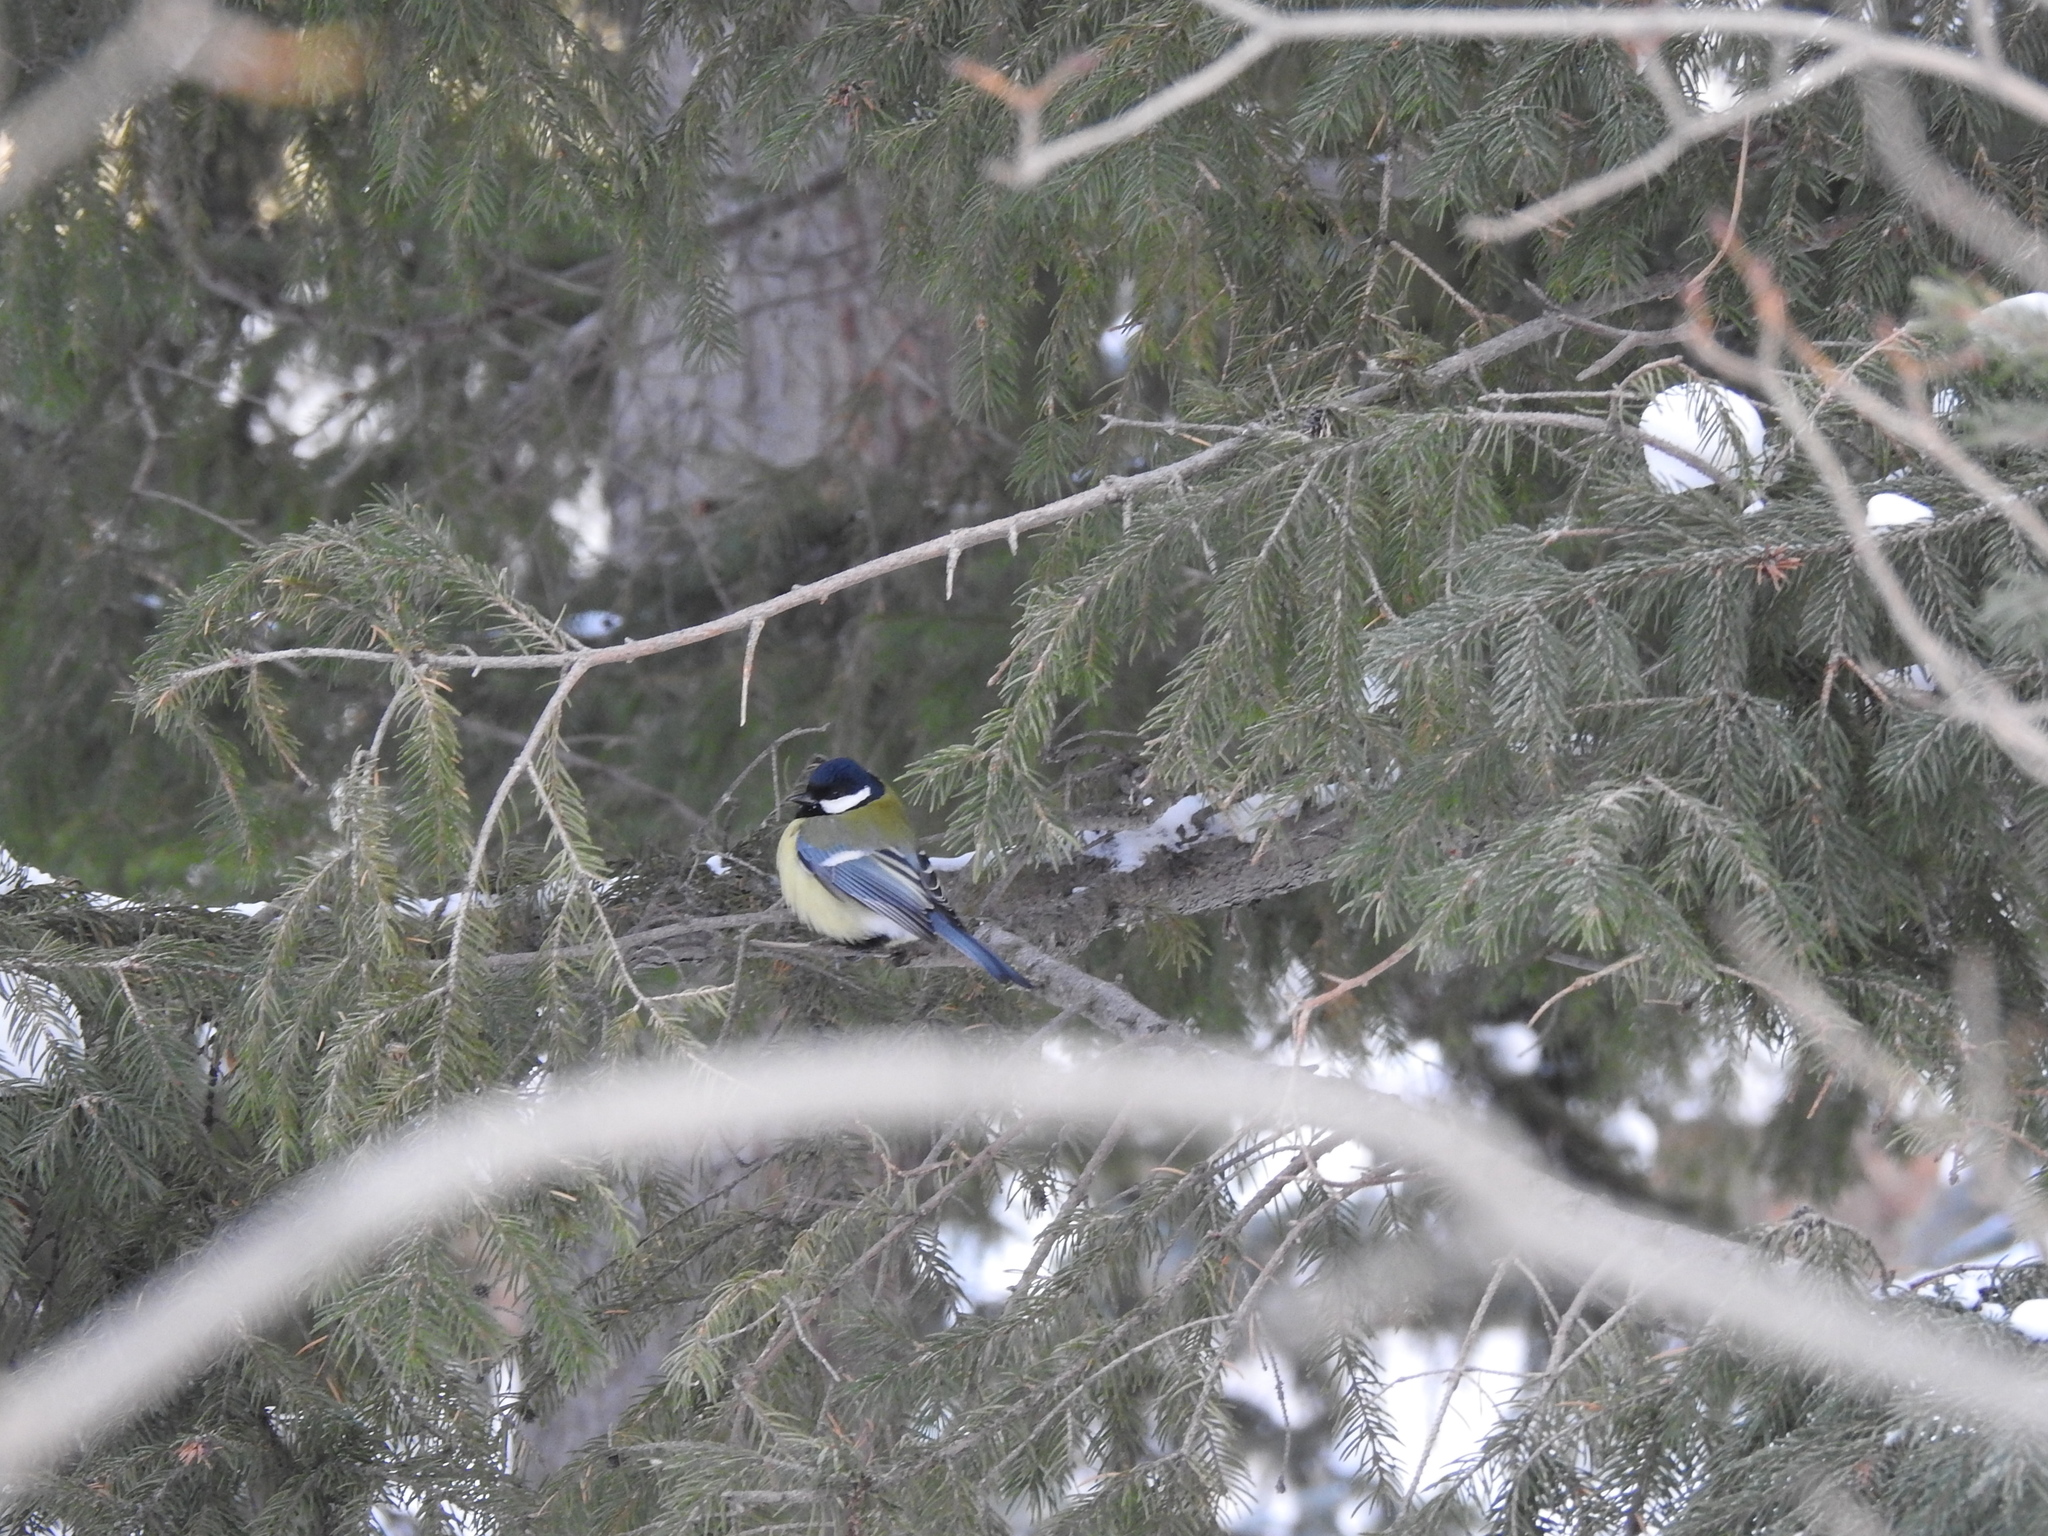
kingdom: Animalia
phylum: Chordata
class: Aves
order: Passeriformes
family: Paridae
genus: Parus
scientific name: Parus major
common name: Great tit
